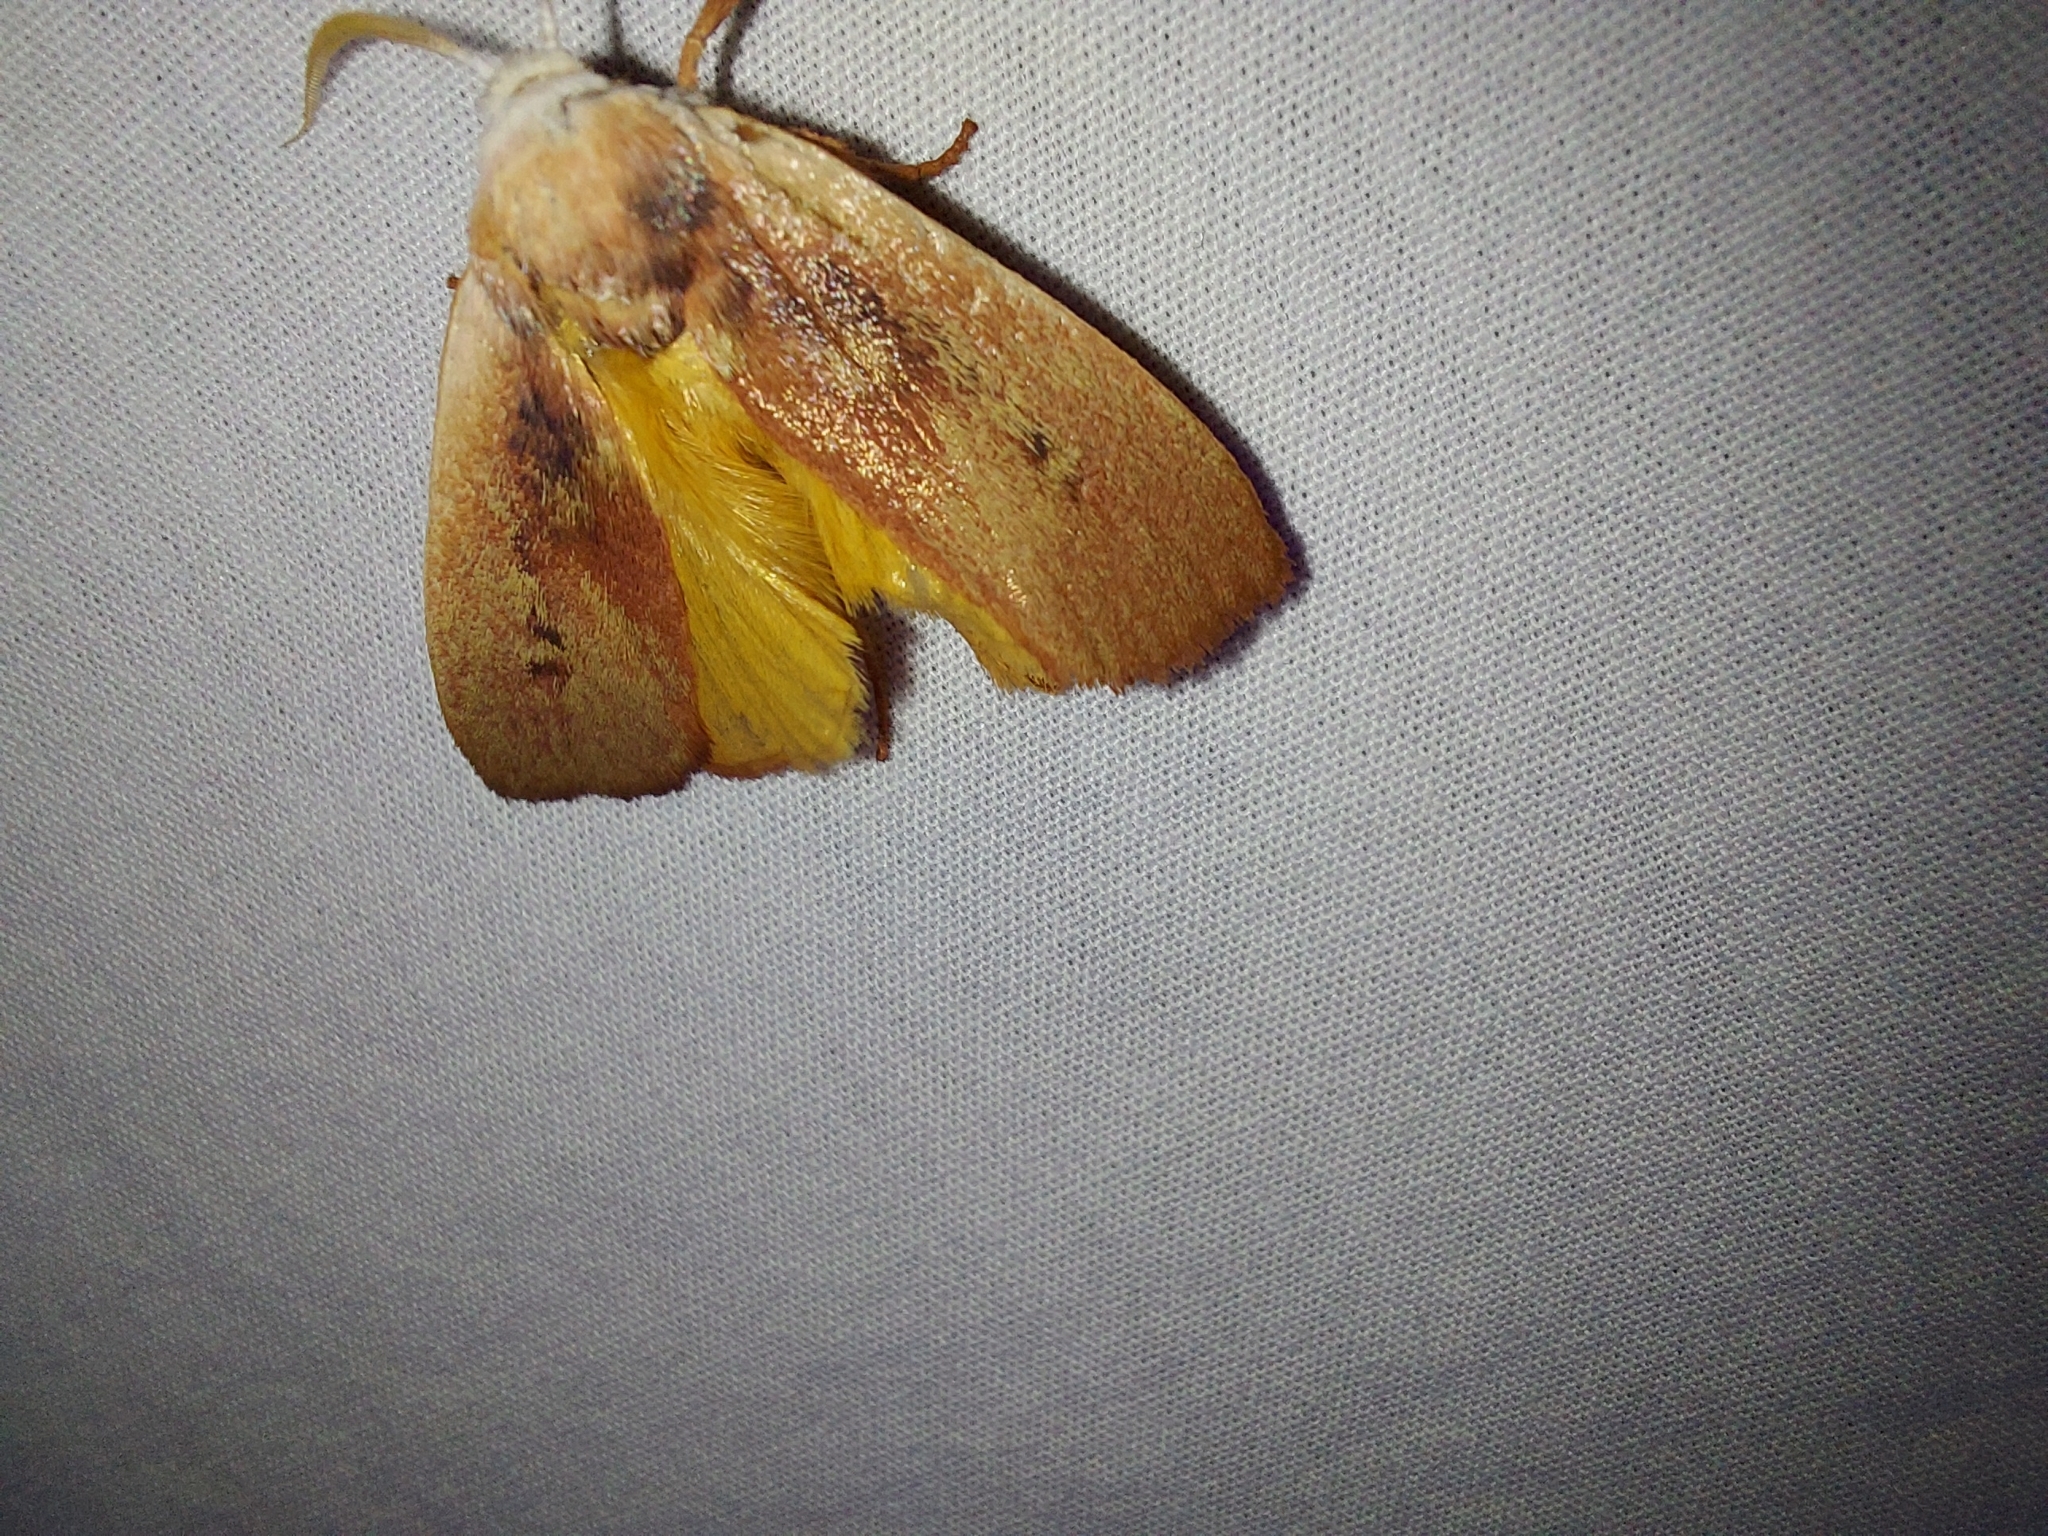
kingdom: Animalia
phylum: Arthropoda
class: Insecta
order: Lepidoptera
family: Xyloryctidae
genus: Cryptophasa
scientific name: Cryptophasa rubescens
